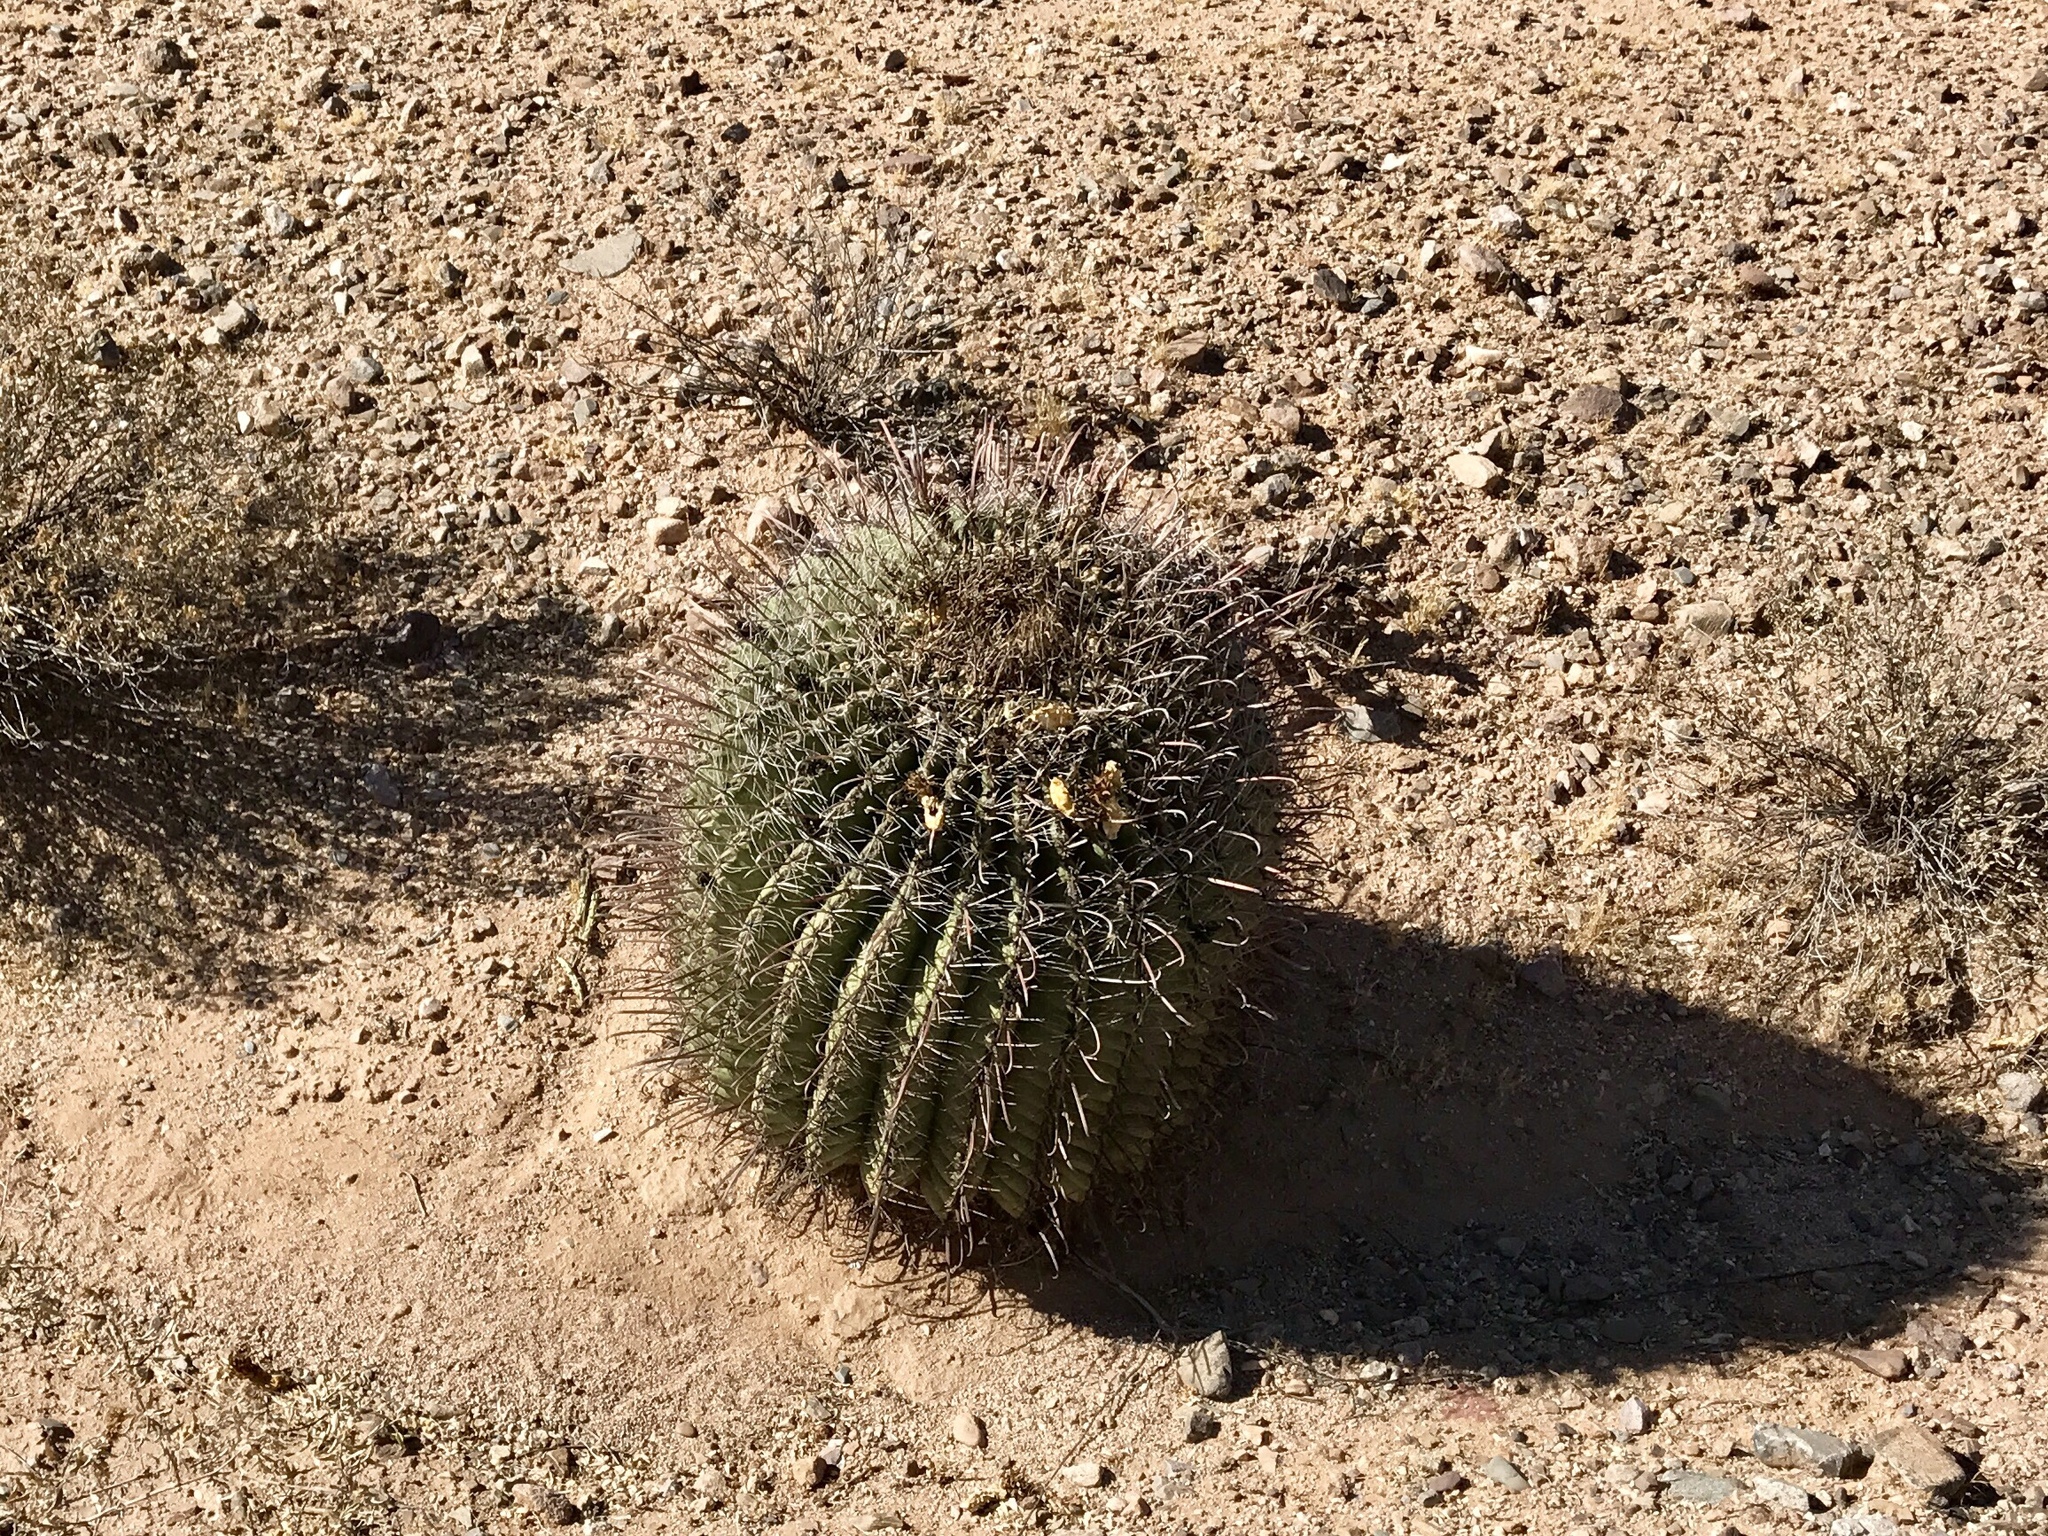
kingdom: Plantae
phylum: Tracheophyta
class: Magnoliopsida
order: Caryophyllales
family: Cactaceae
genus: Ferocactus
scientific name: Ferocactus wislizeni
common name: Candy barrel cactus
